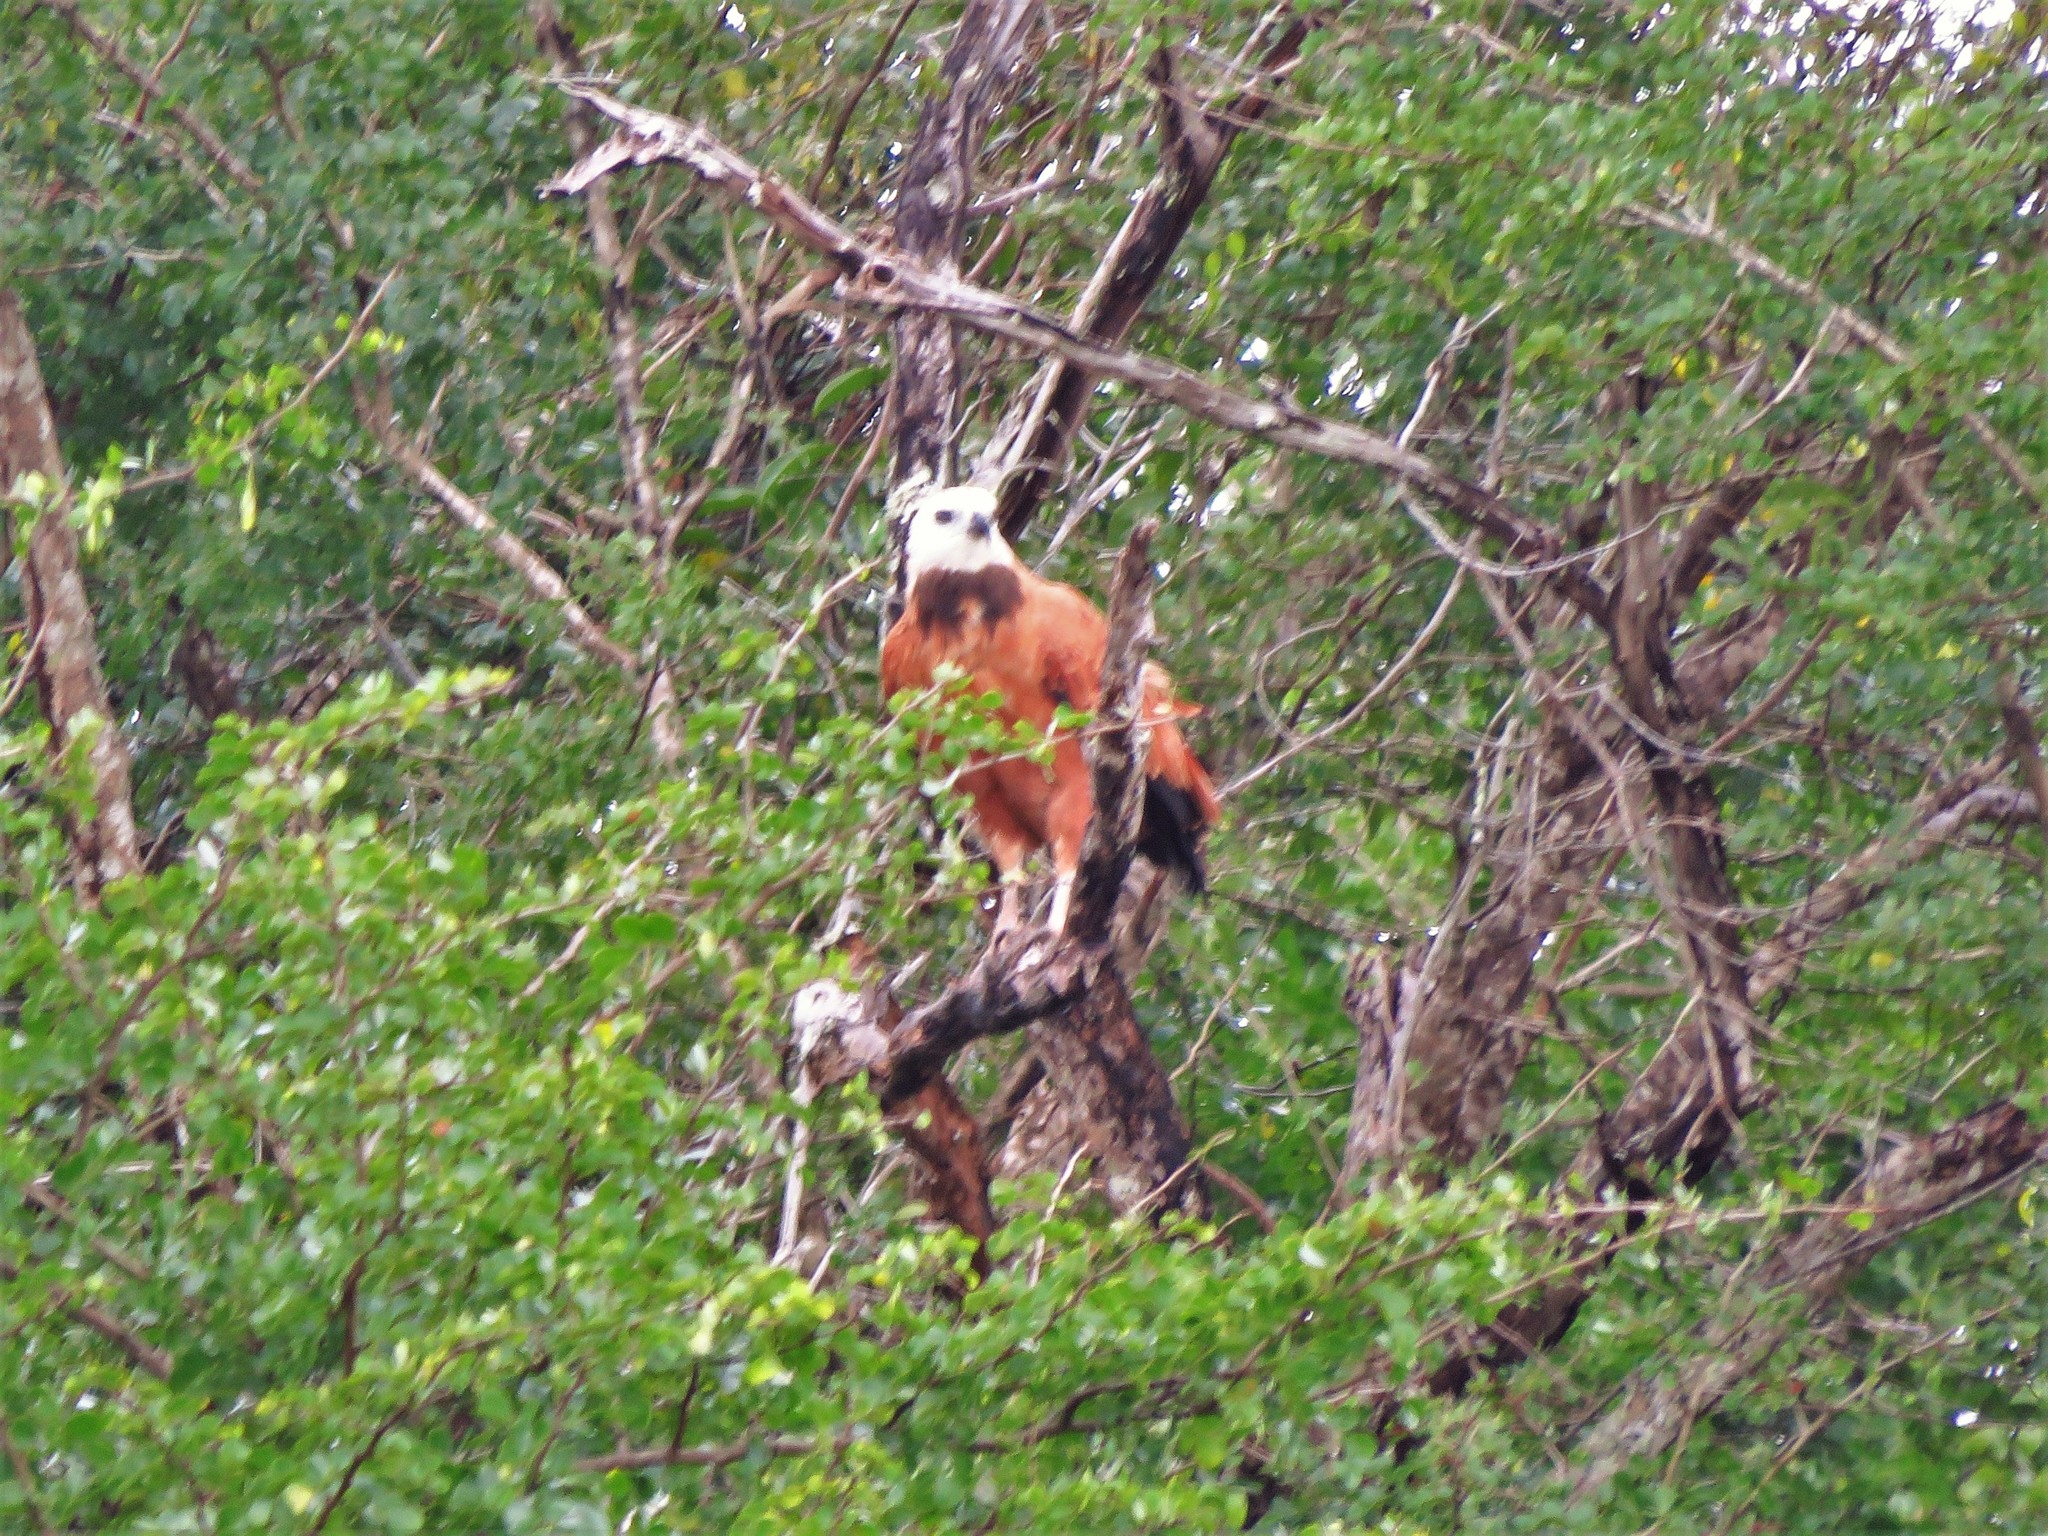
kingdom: Animalia
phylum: Chordata
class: Aves
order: Accipitriformes
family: Accipitridae
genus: Busarellus
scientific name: Busarellus nigricollis
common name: Black-collared hawk
